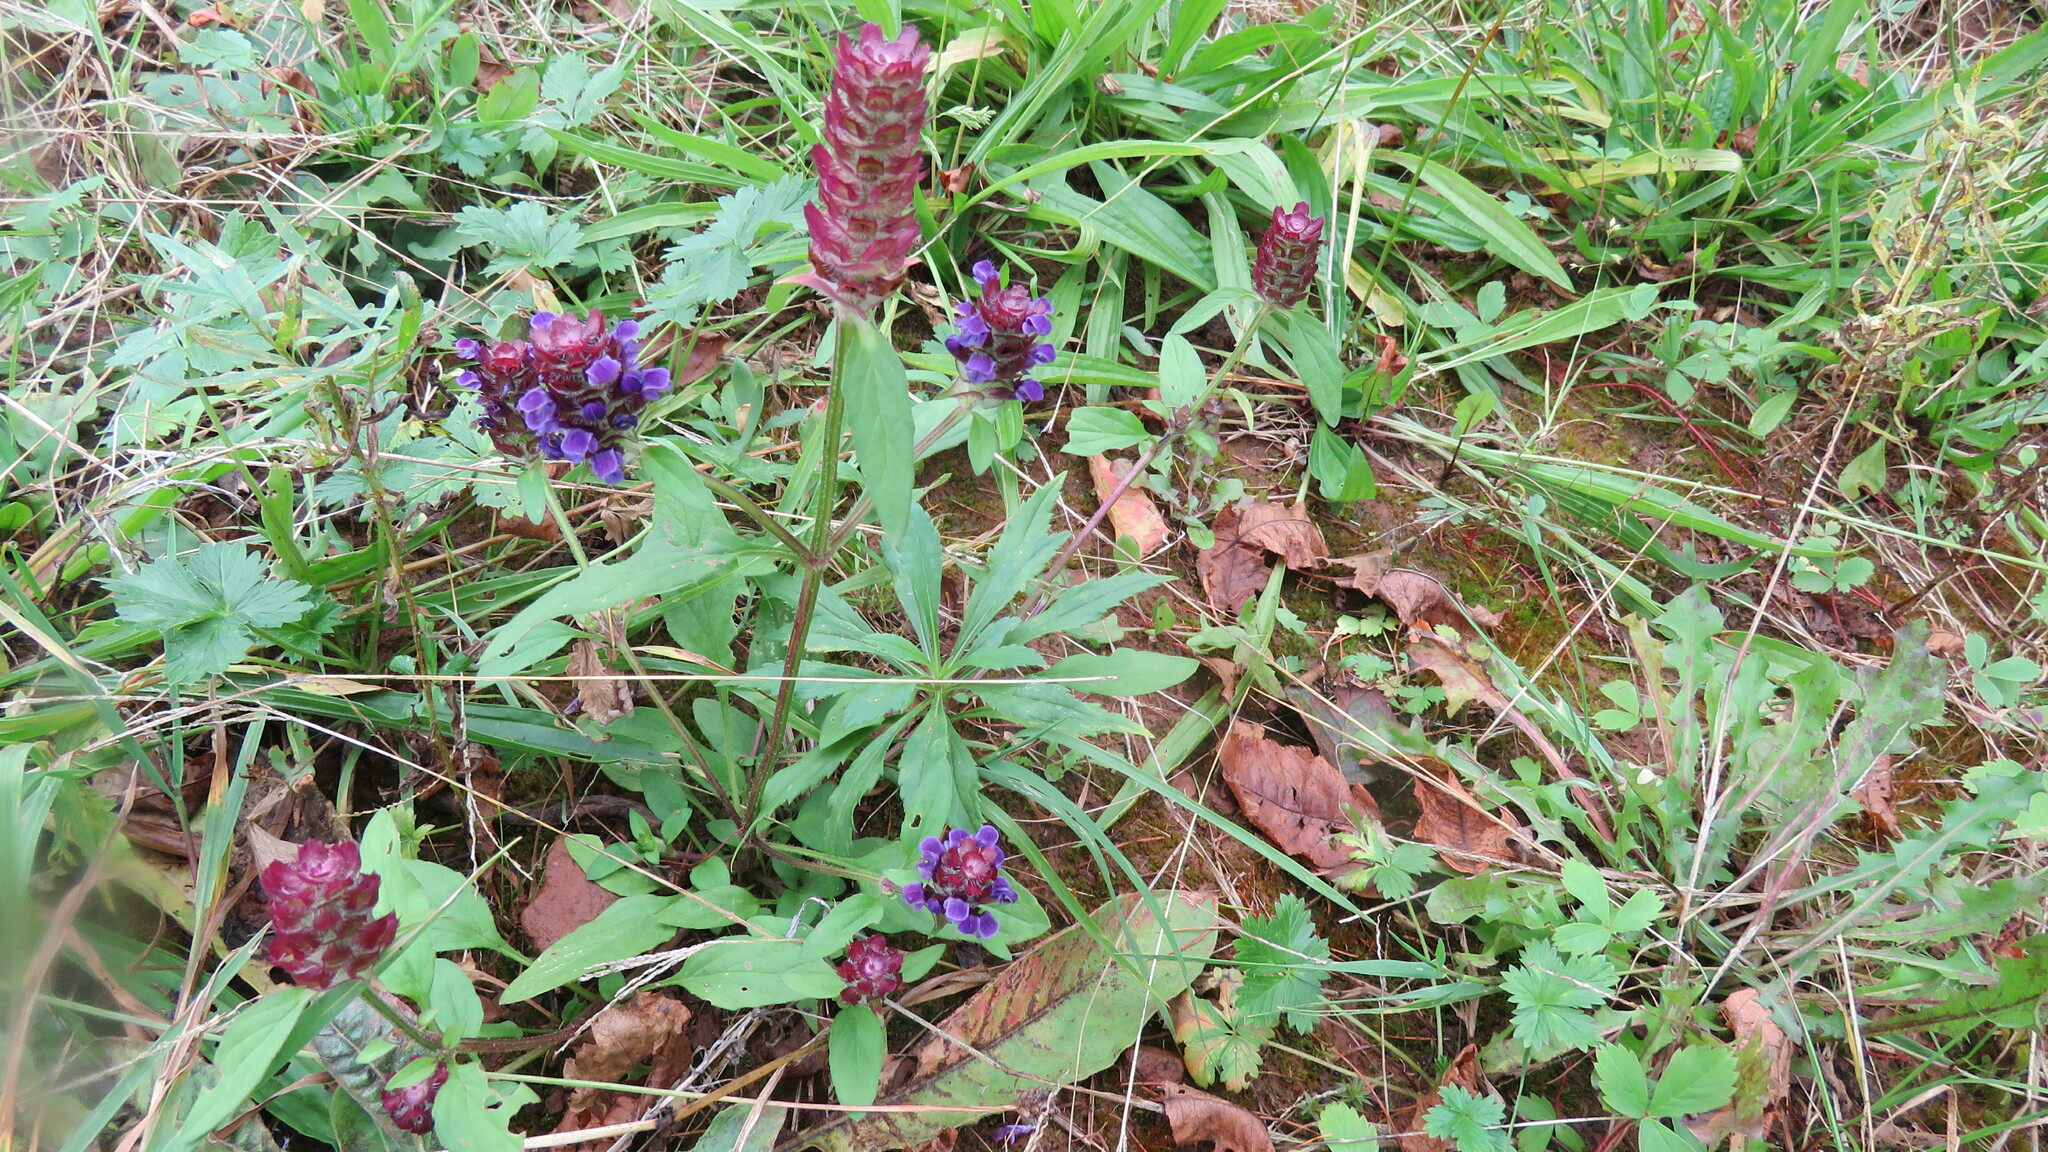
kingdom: Plantae
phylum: Tracheophyta
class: Magnoliopsida
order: Lamiales
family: Lamiaceae
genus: Prunella
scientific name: Prunella vulgaris
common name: Heal-all
